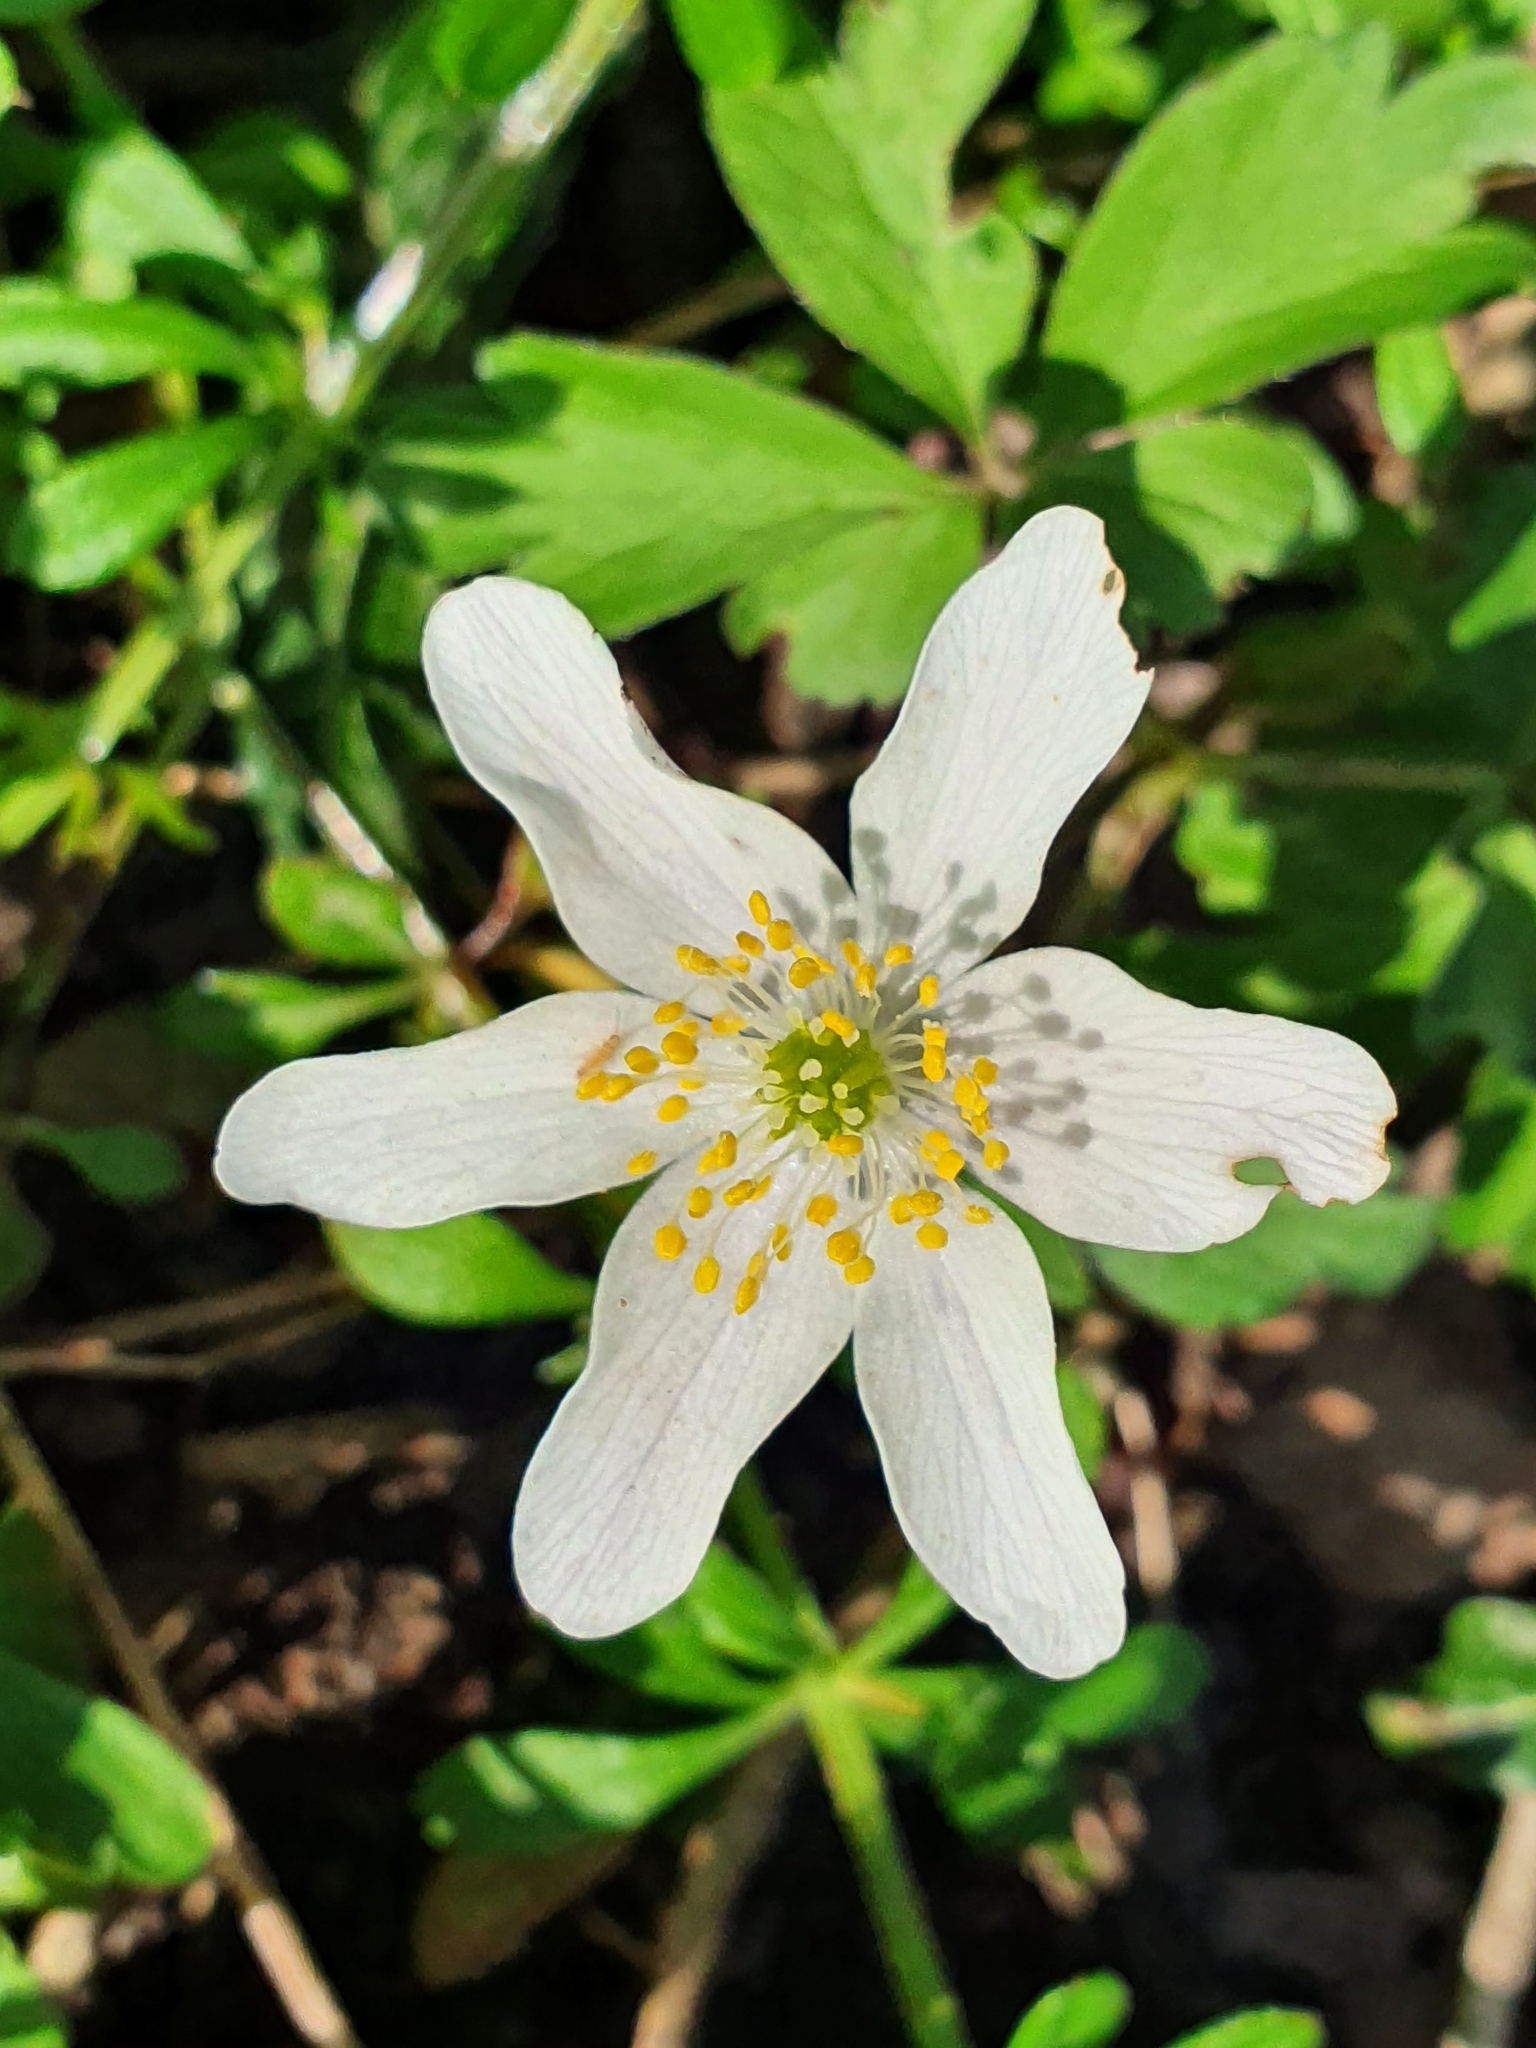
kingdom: Plantae
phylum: Tracheophyta
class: Magnoliopsida
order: Ranunculales
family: Ranunculaceae
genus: Anemone
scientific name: Anemone nemorosa
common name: Wood anemone
